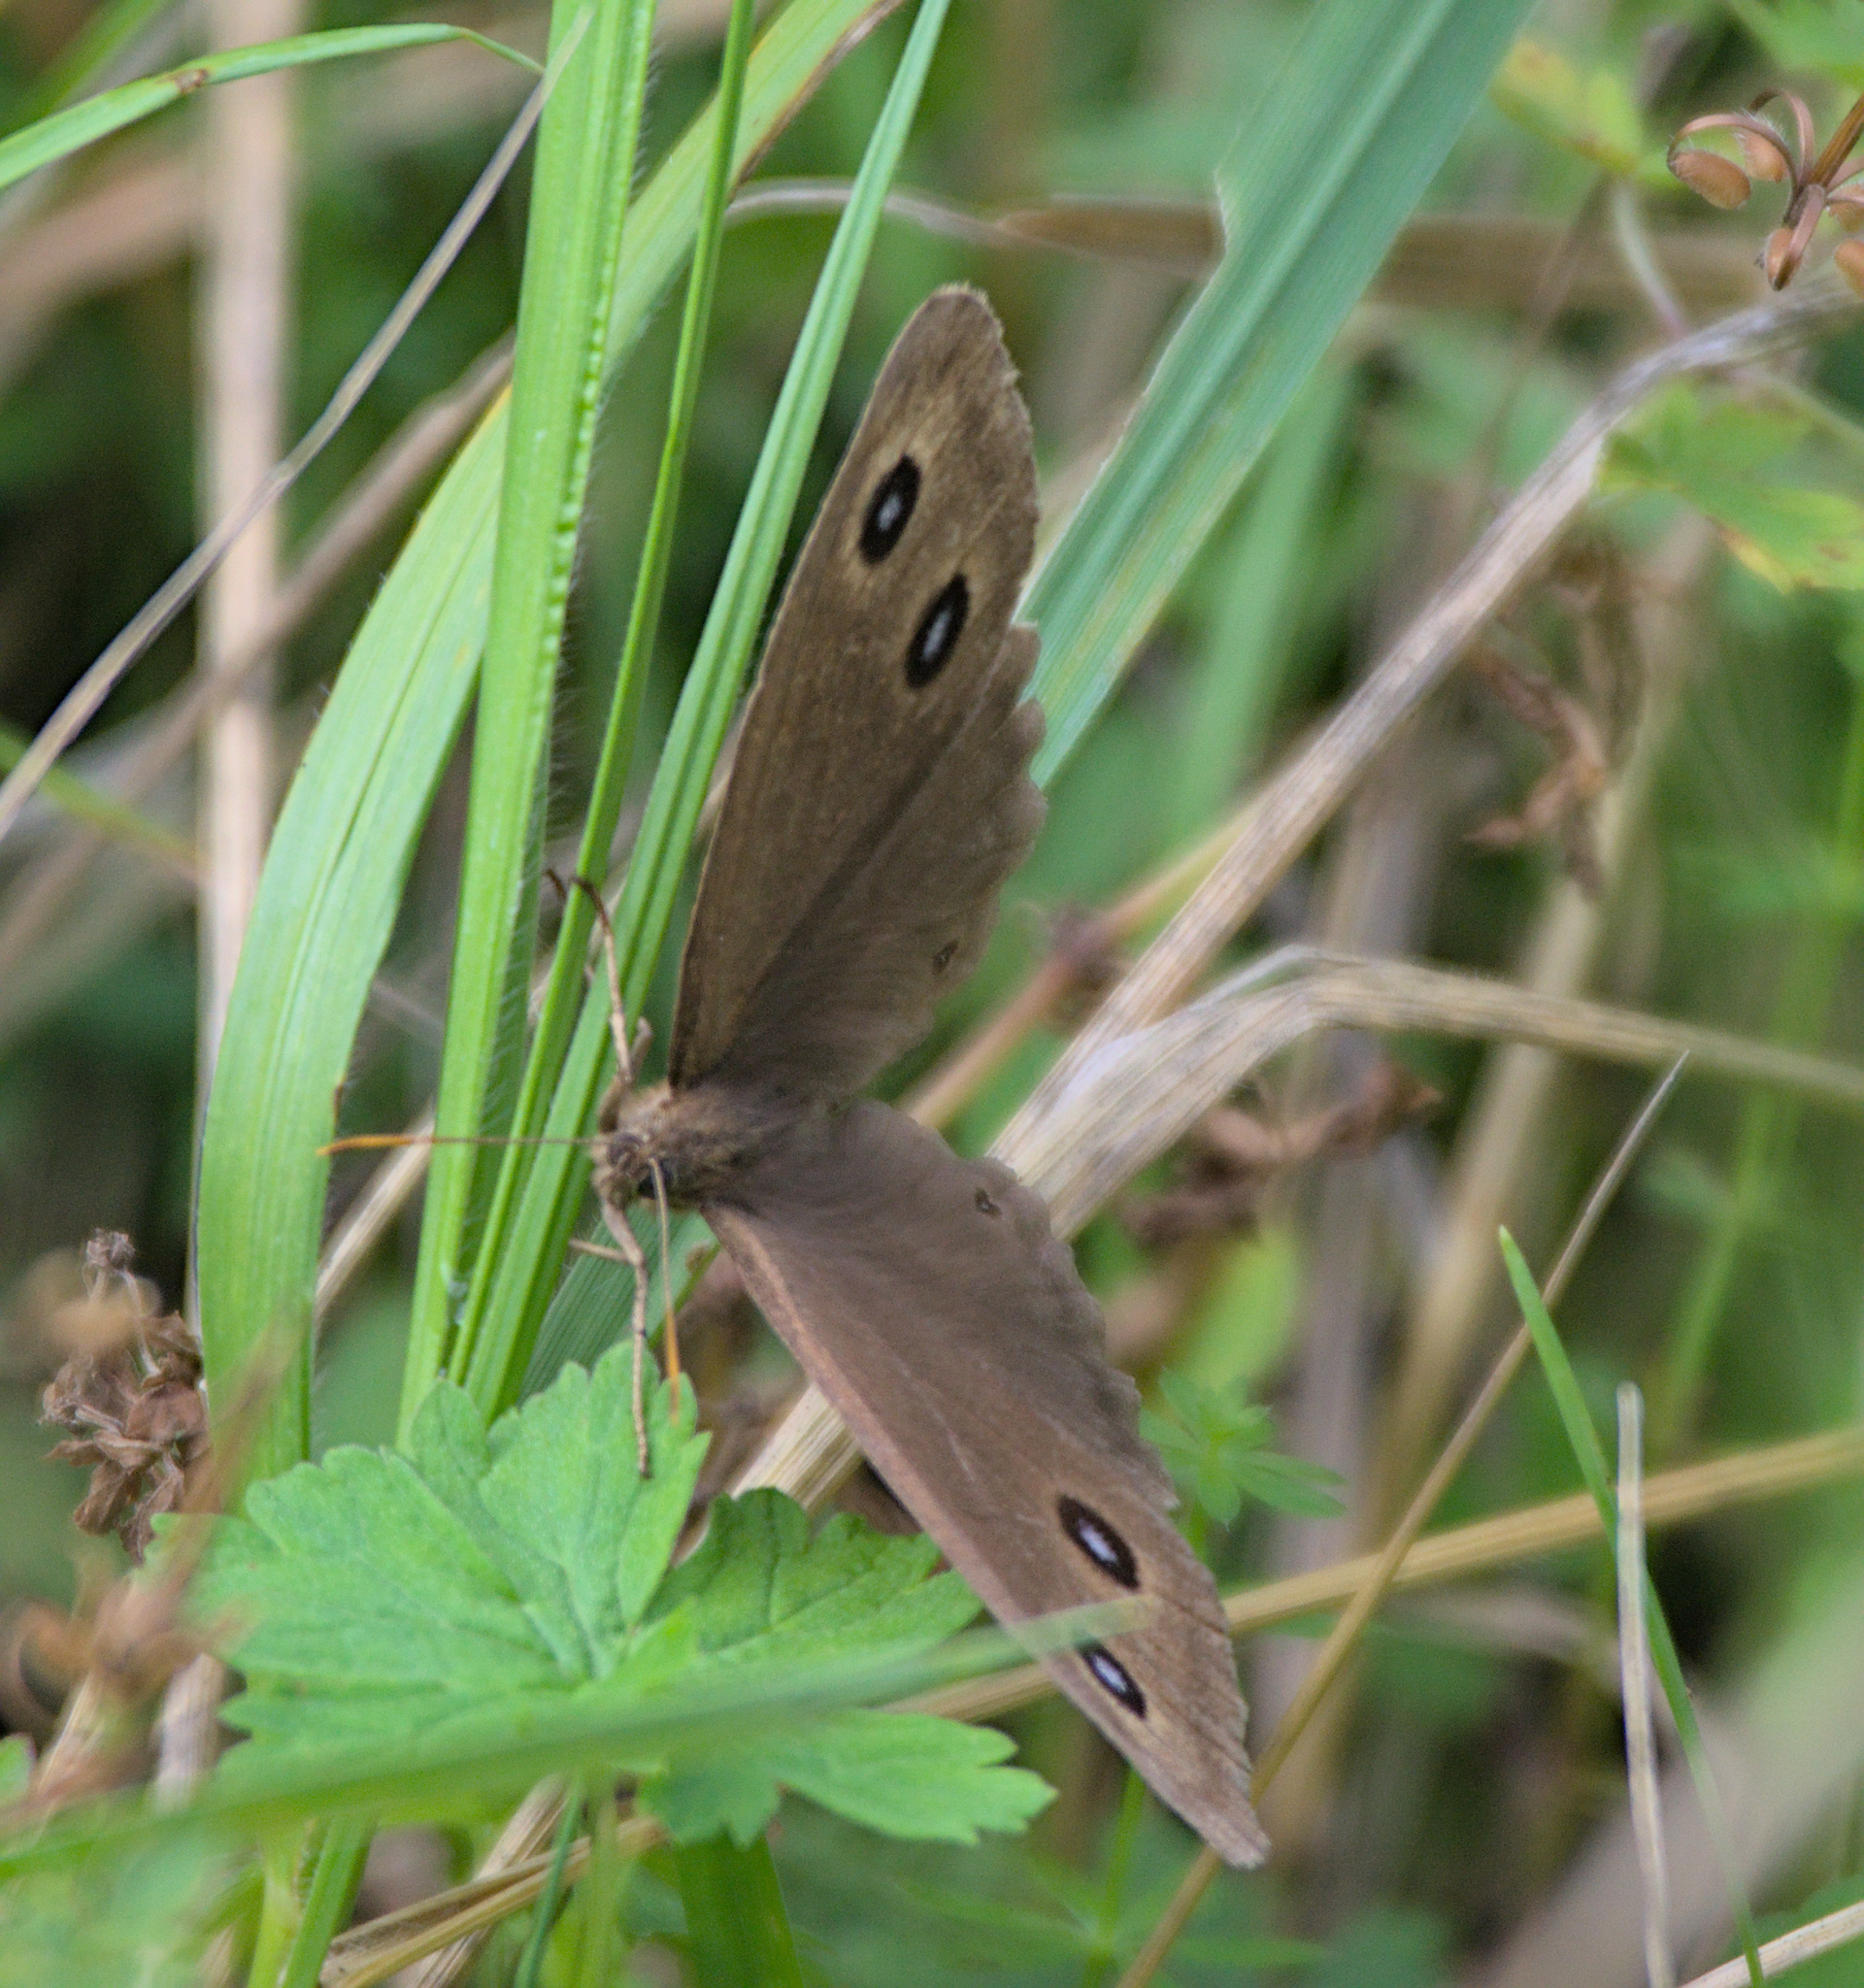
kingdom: Animalia
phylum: Arthropoda
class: Insecta
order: Lepidoptera
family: Nymphalidae
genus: Minois
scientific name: Minois dryas
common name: Dryad
